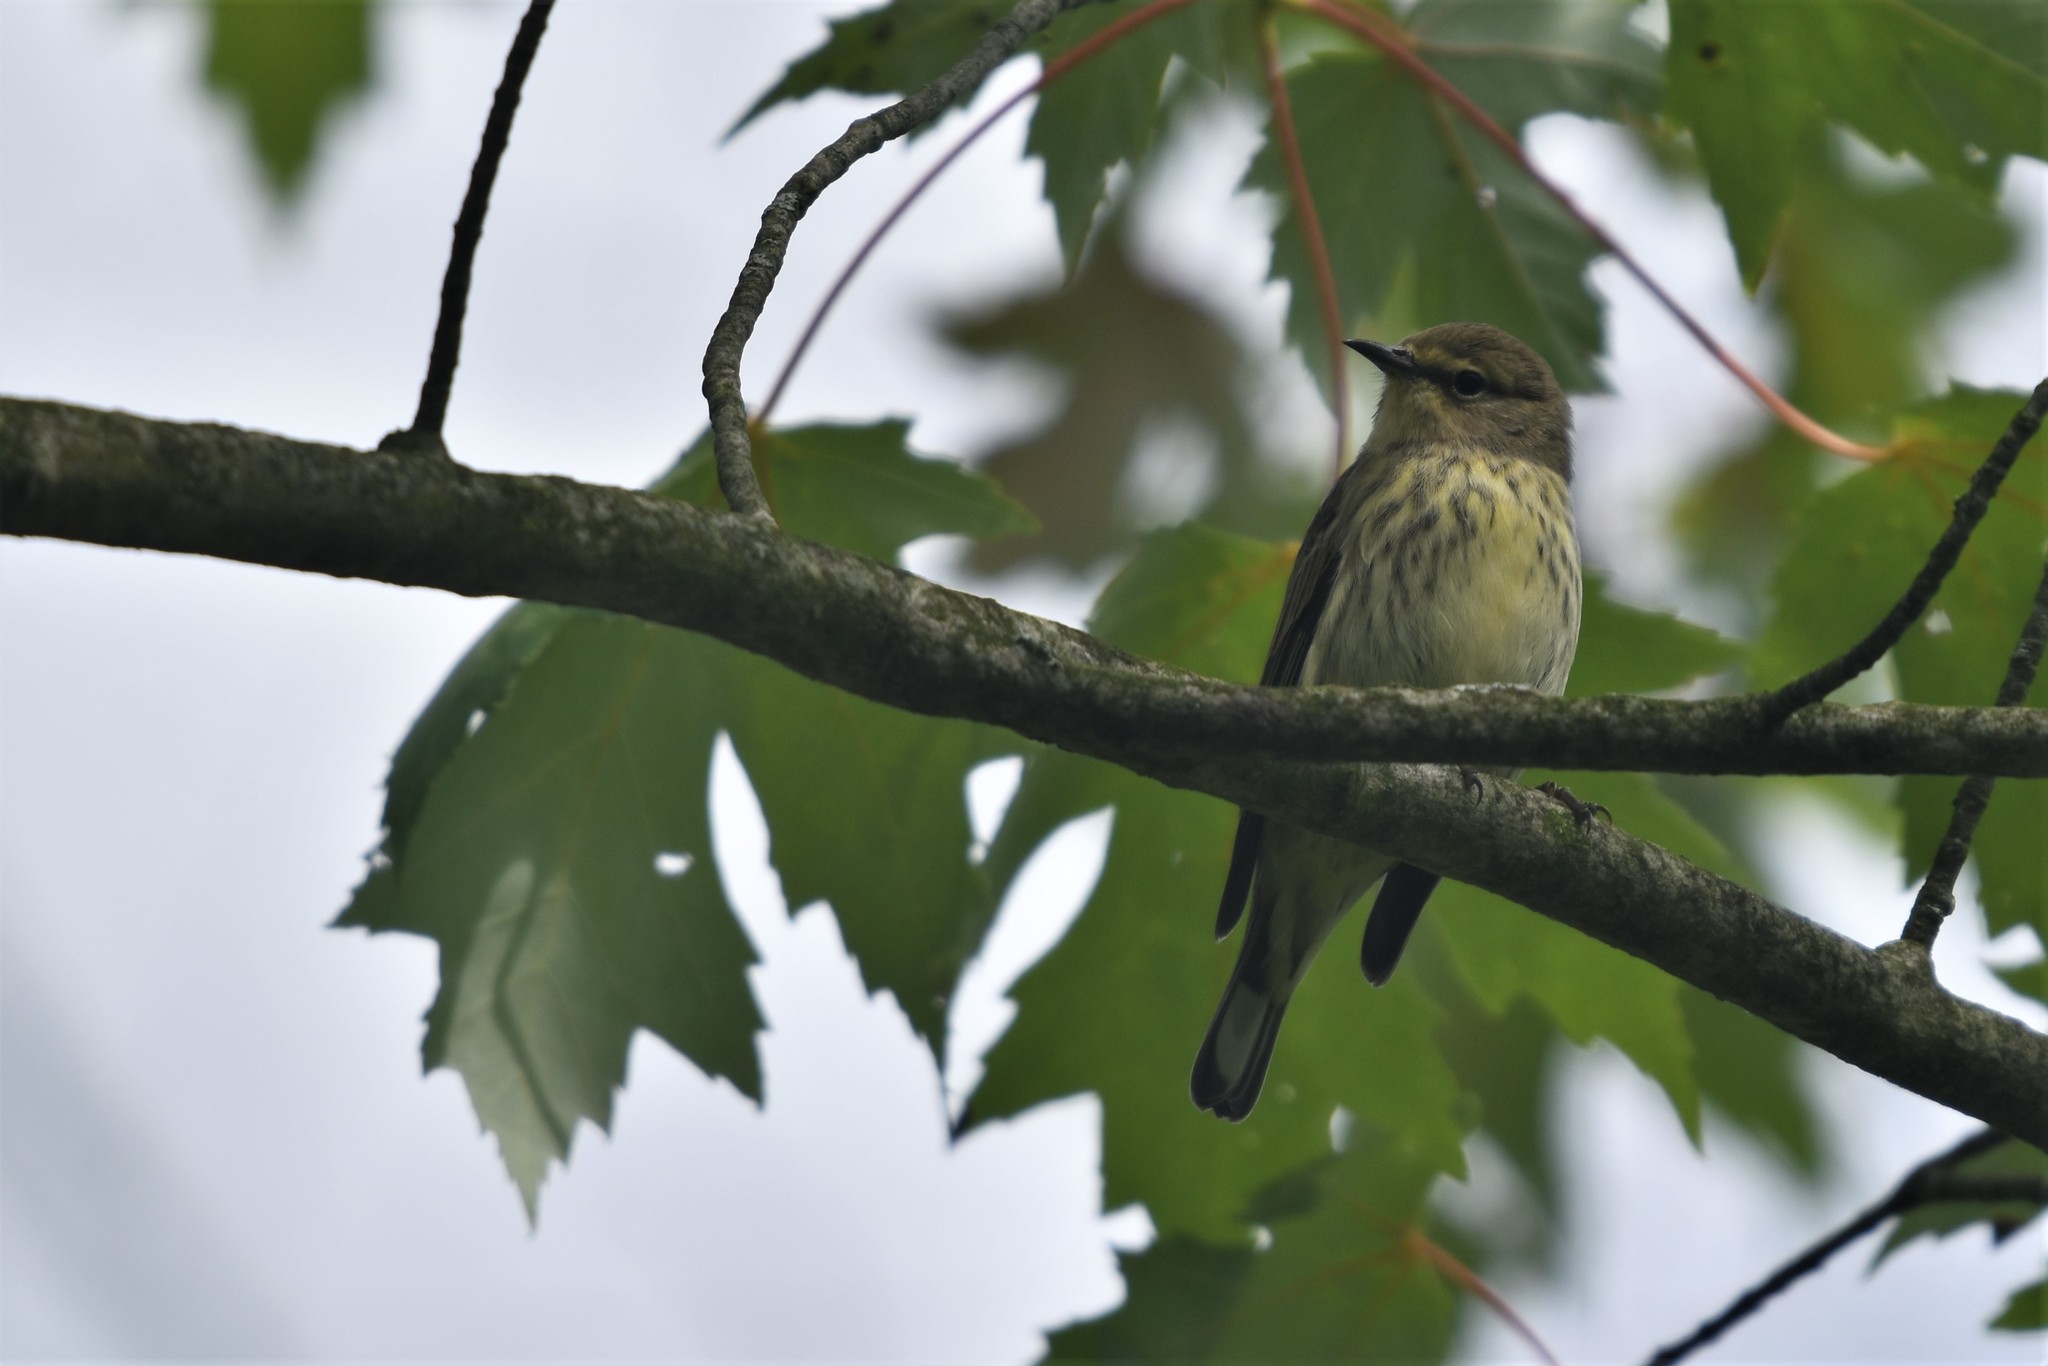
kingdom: Animalia
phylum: Chordata
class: Aves
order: Passeriformes
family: Parulidae
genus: Setophaga
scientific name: Setophaga tigrina
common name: Cape may warbler
